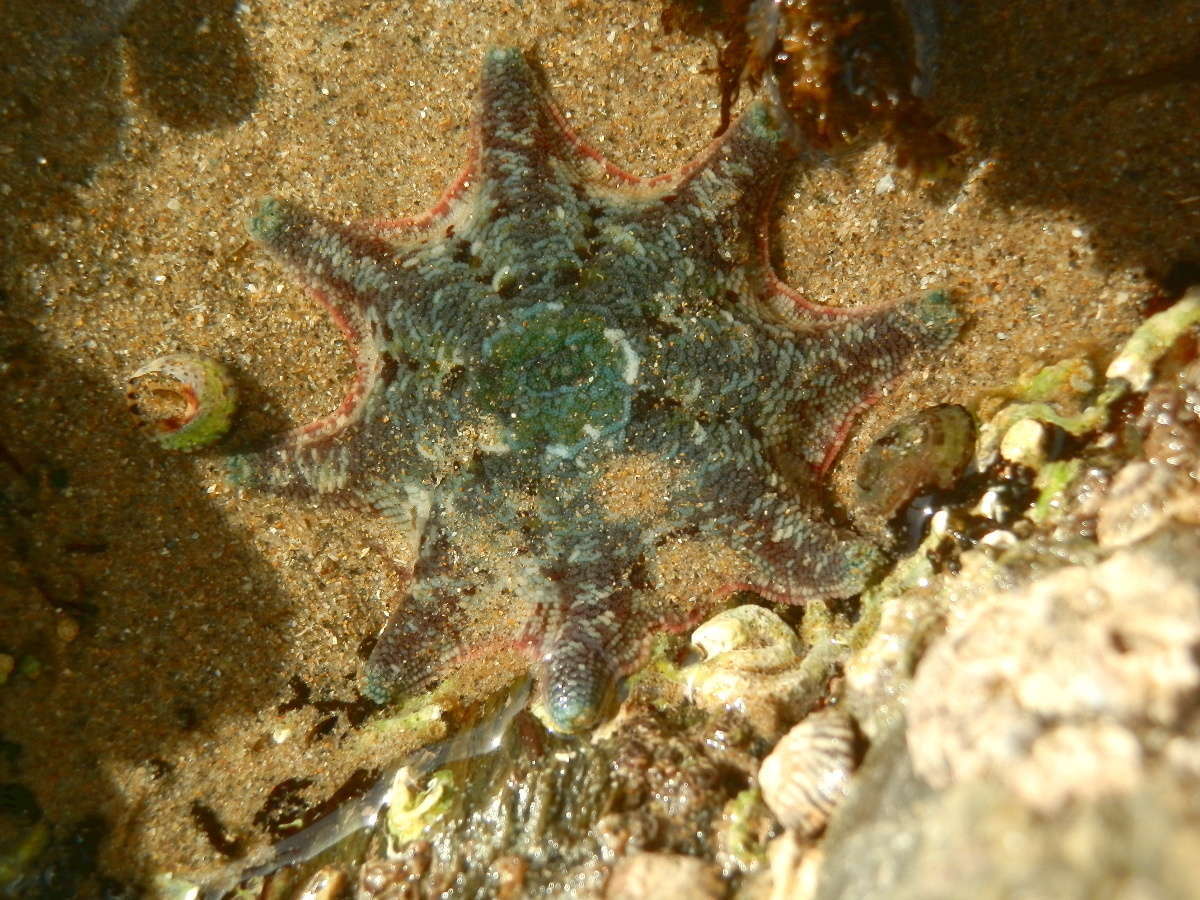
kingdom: Animalia
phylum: Echinodermata
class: Asteroidea
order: Valvatida
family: Asterinidae
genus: Meridiastra
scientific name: Meridiastra calcar
